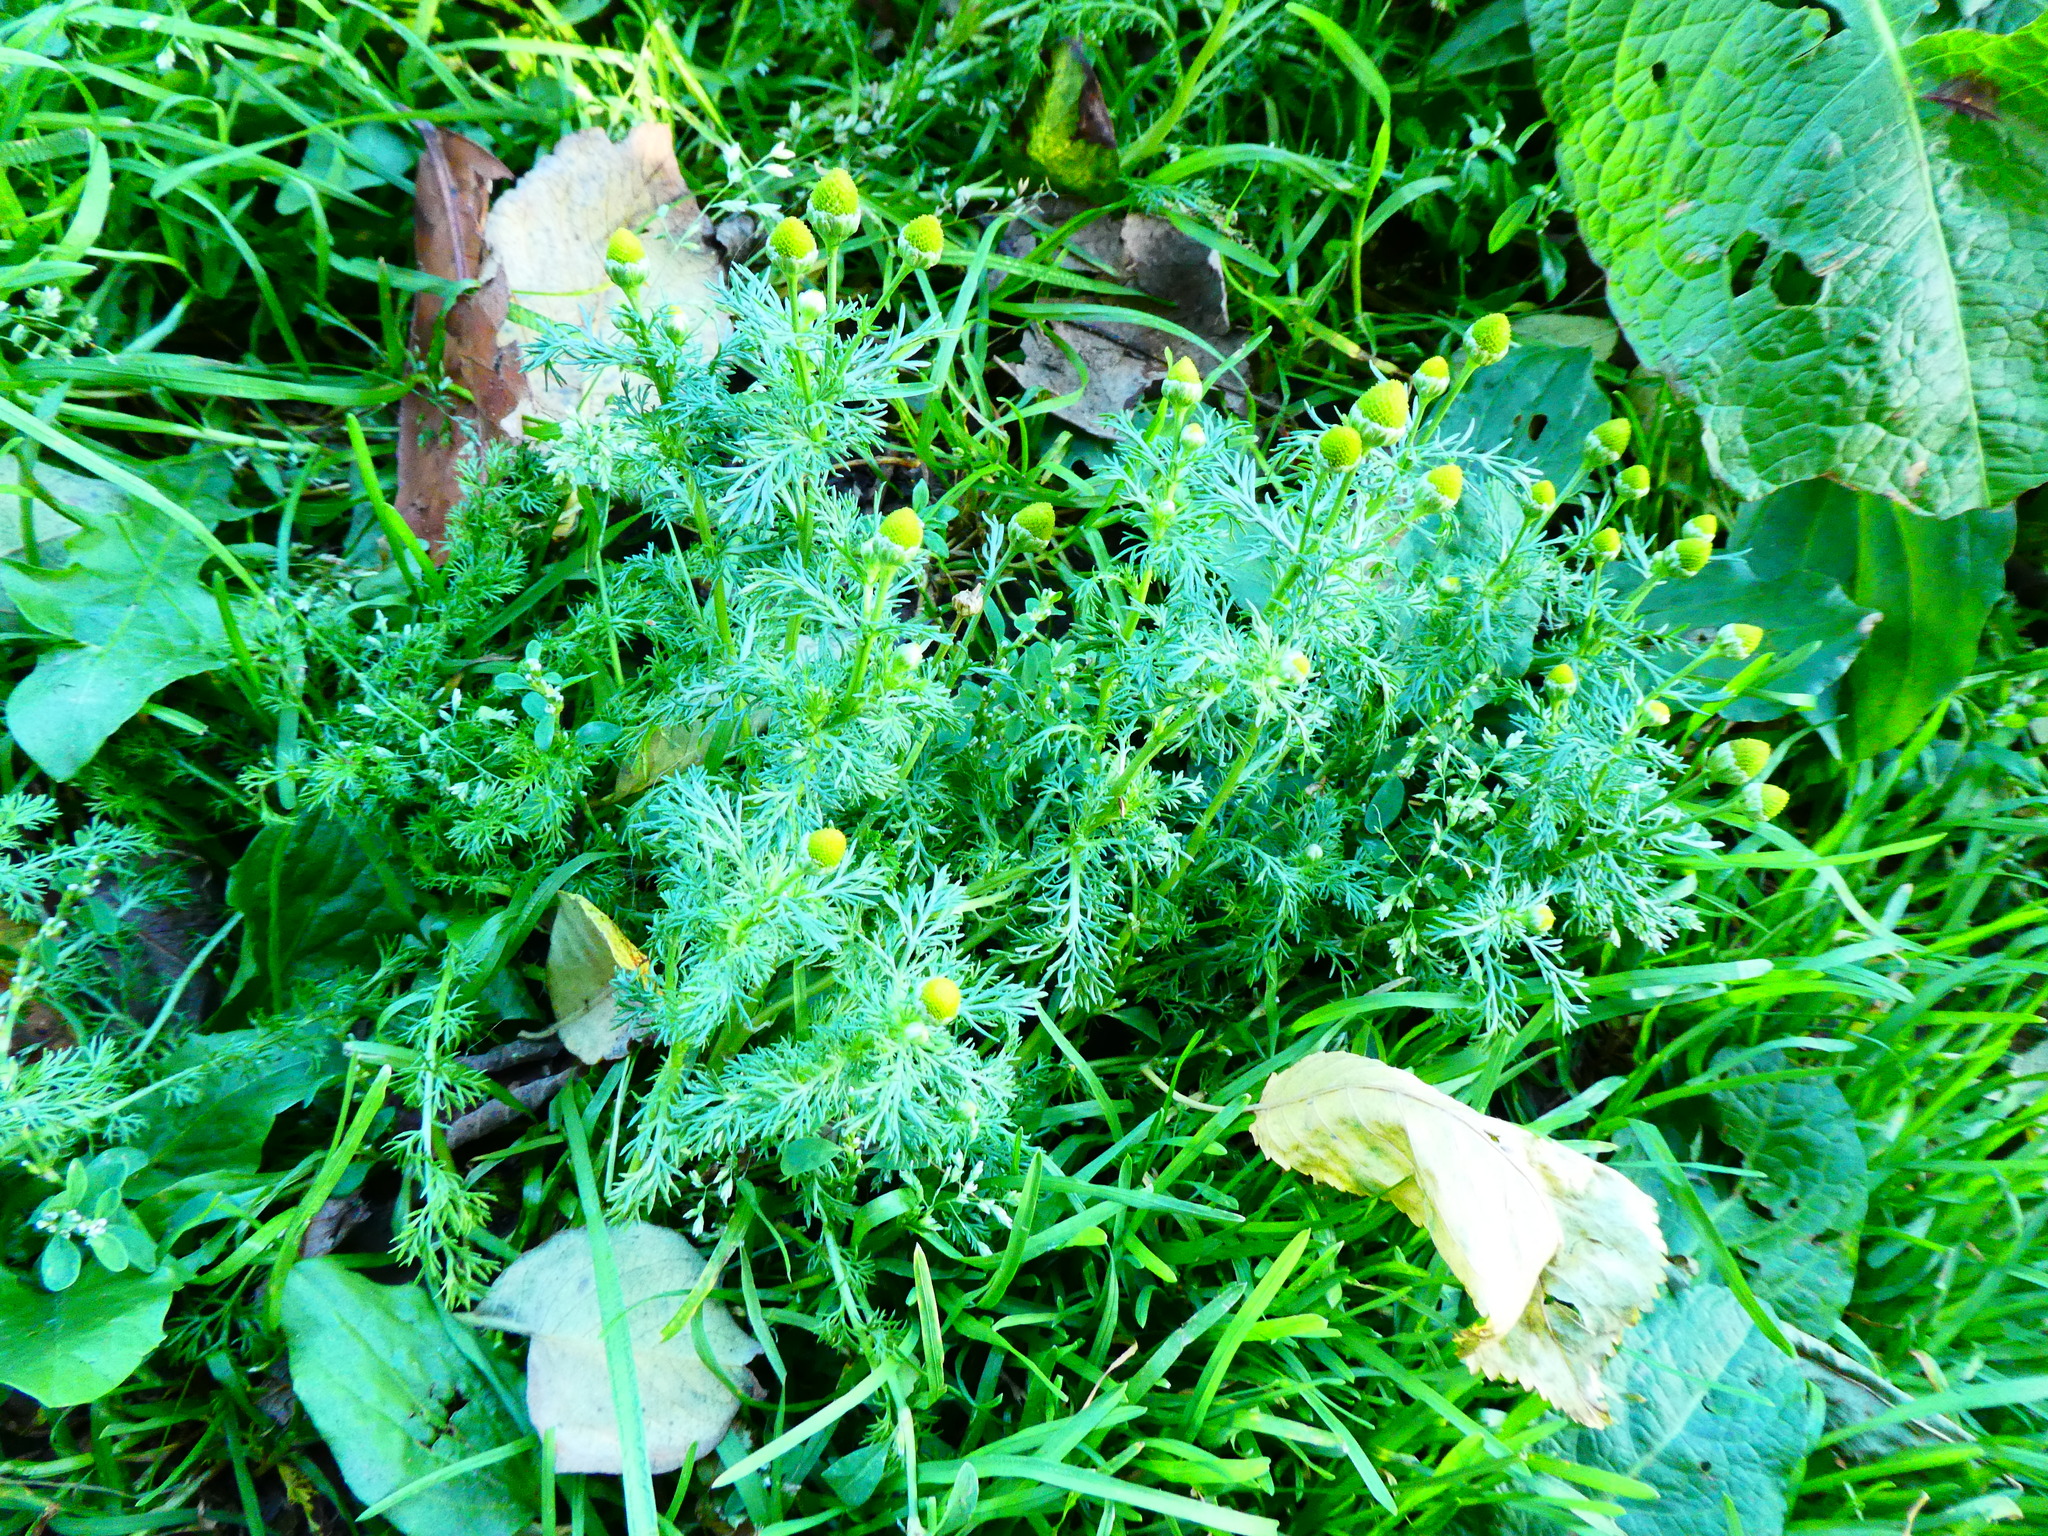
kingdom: Plantae
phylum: Tracheophyta
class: Magnoliopsida
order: Asterales
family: Asteraceae
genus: Matricaria
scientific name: Matricaria discoidea
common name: Disc mayweed
